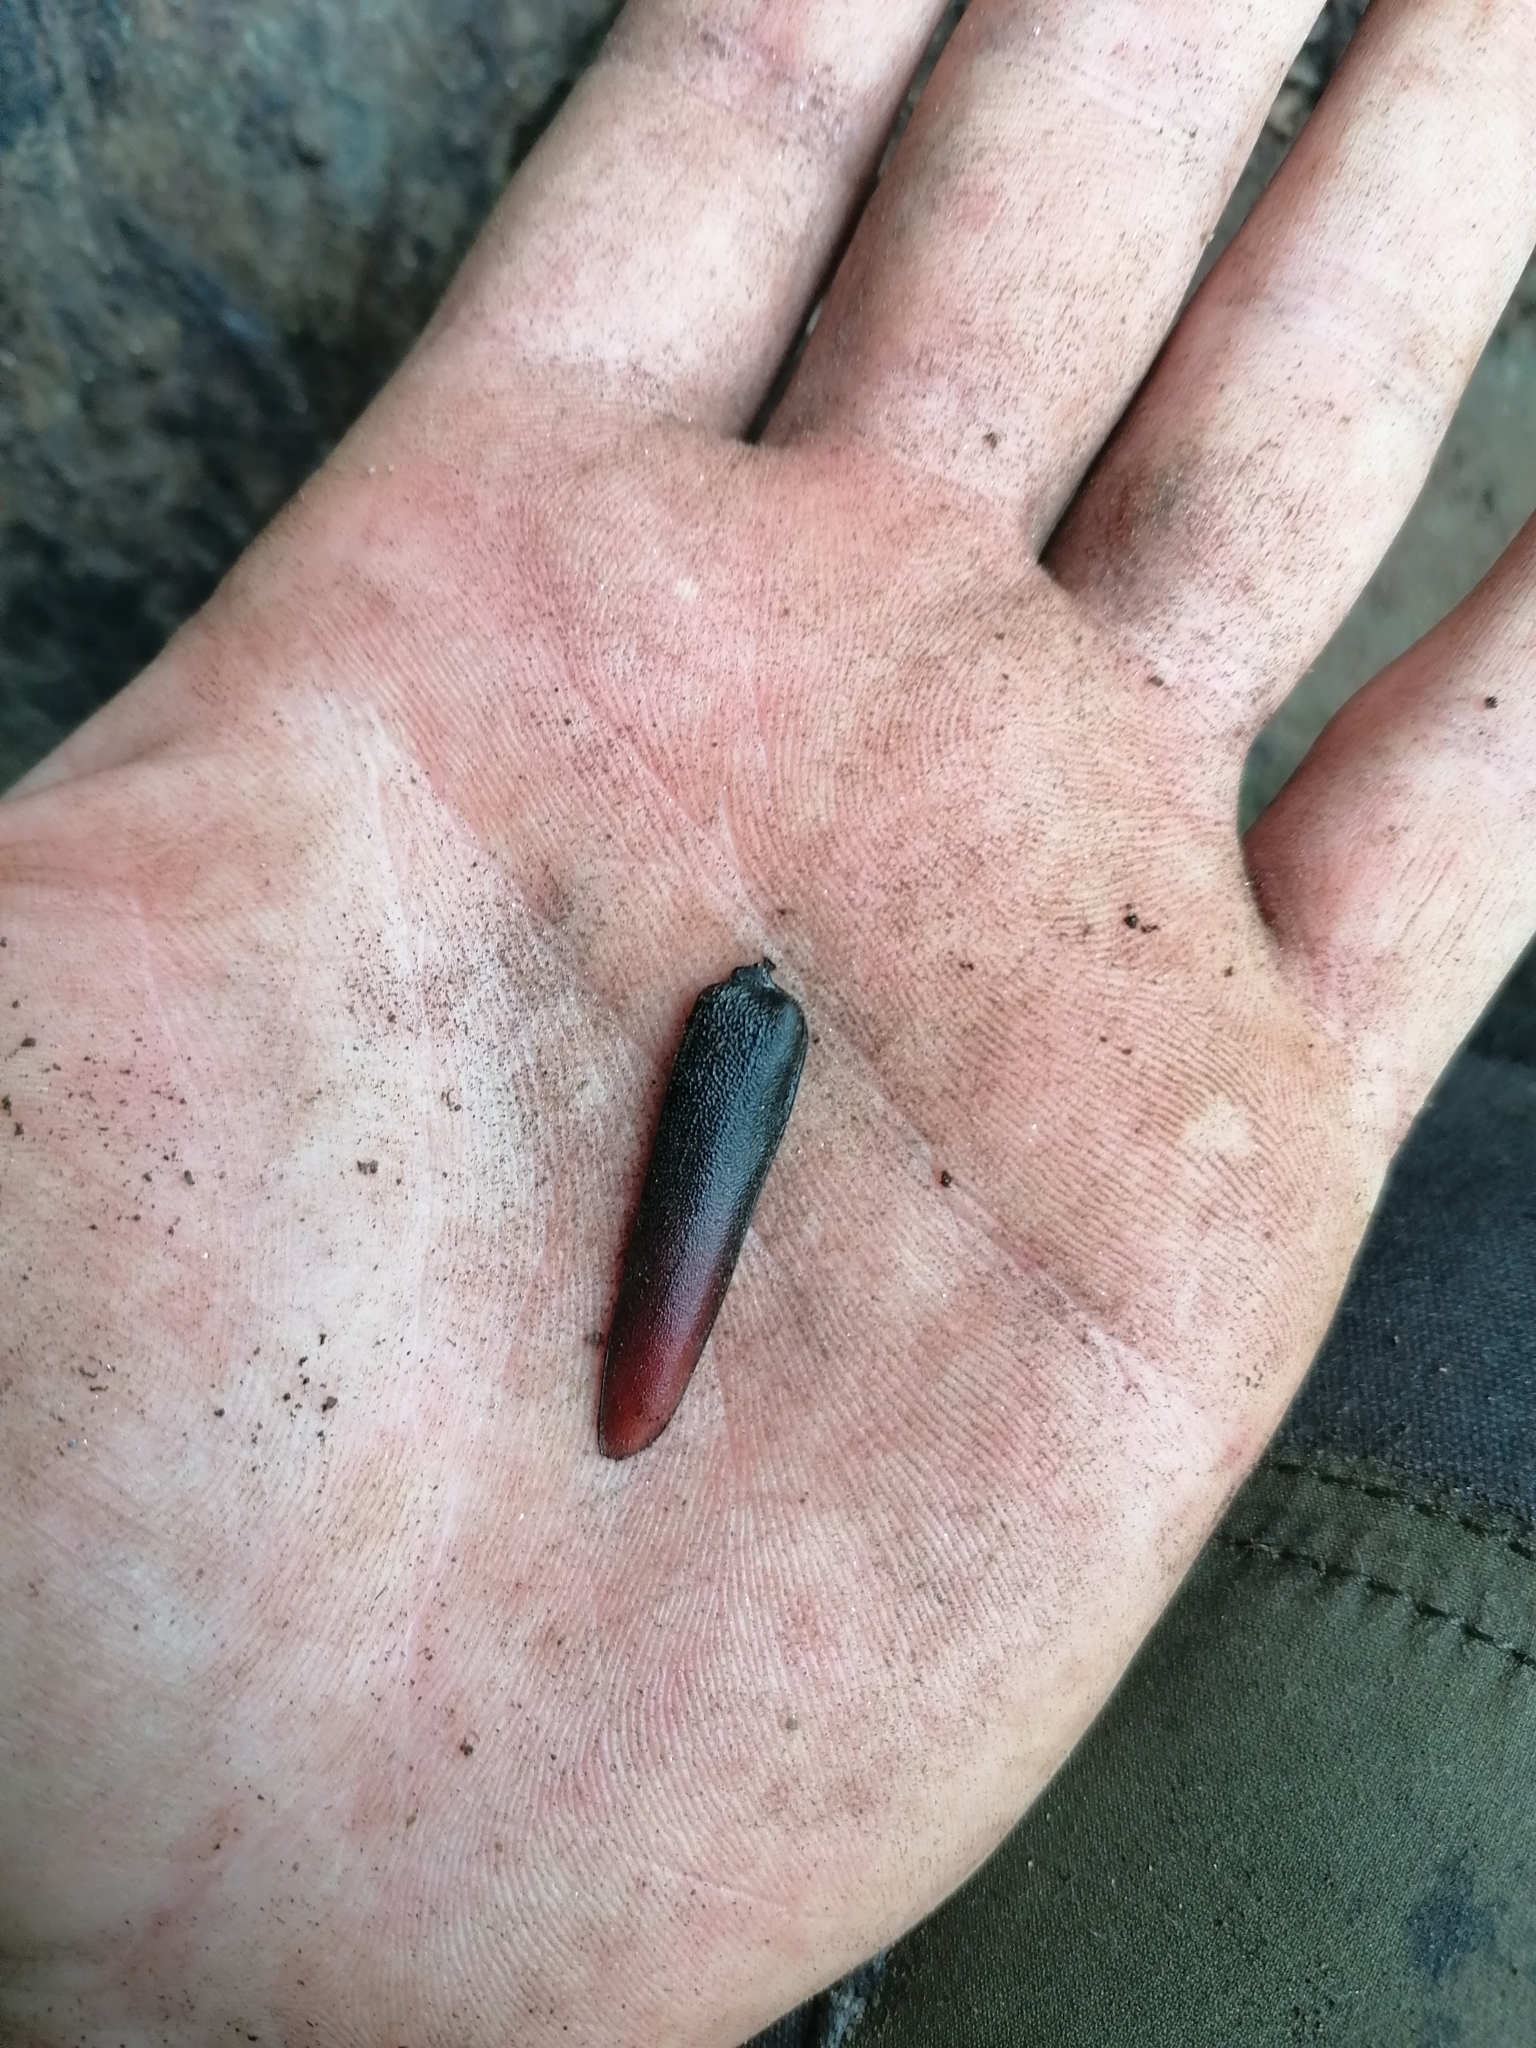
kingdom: Animalia
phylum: Arthropoda
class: Insecta
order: Coleoptera
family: Cerambycidae
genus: Cerambyx
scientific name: Cerambyx cerdo
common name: Cerambyx longicorn
